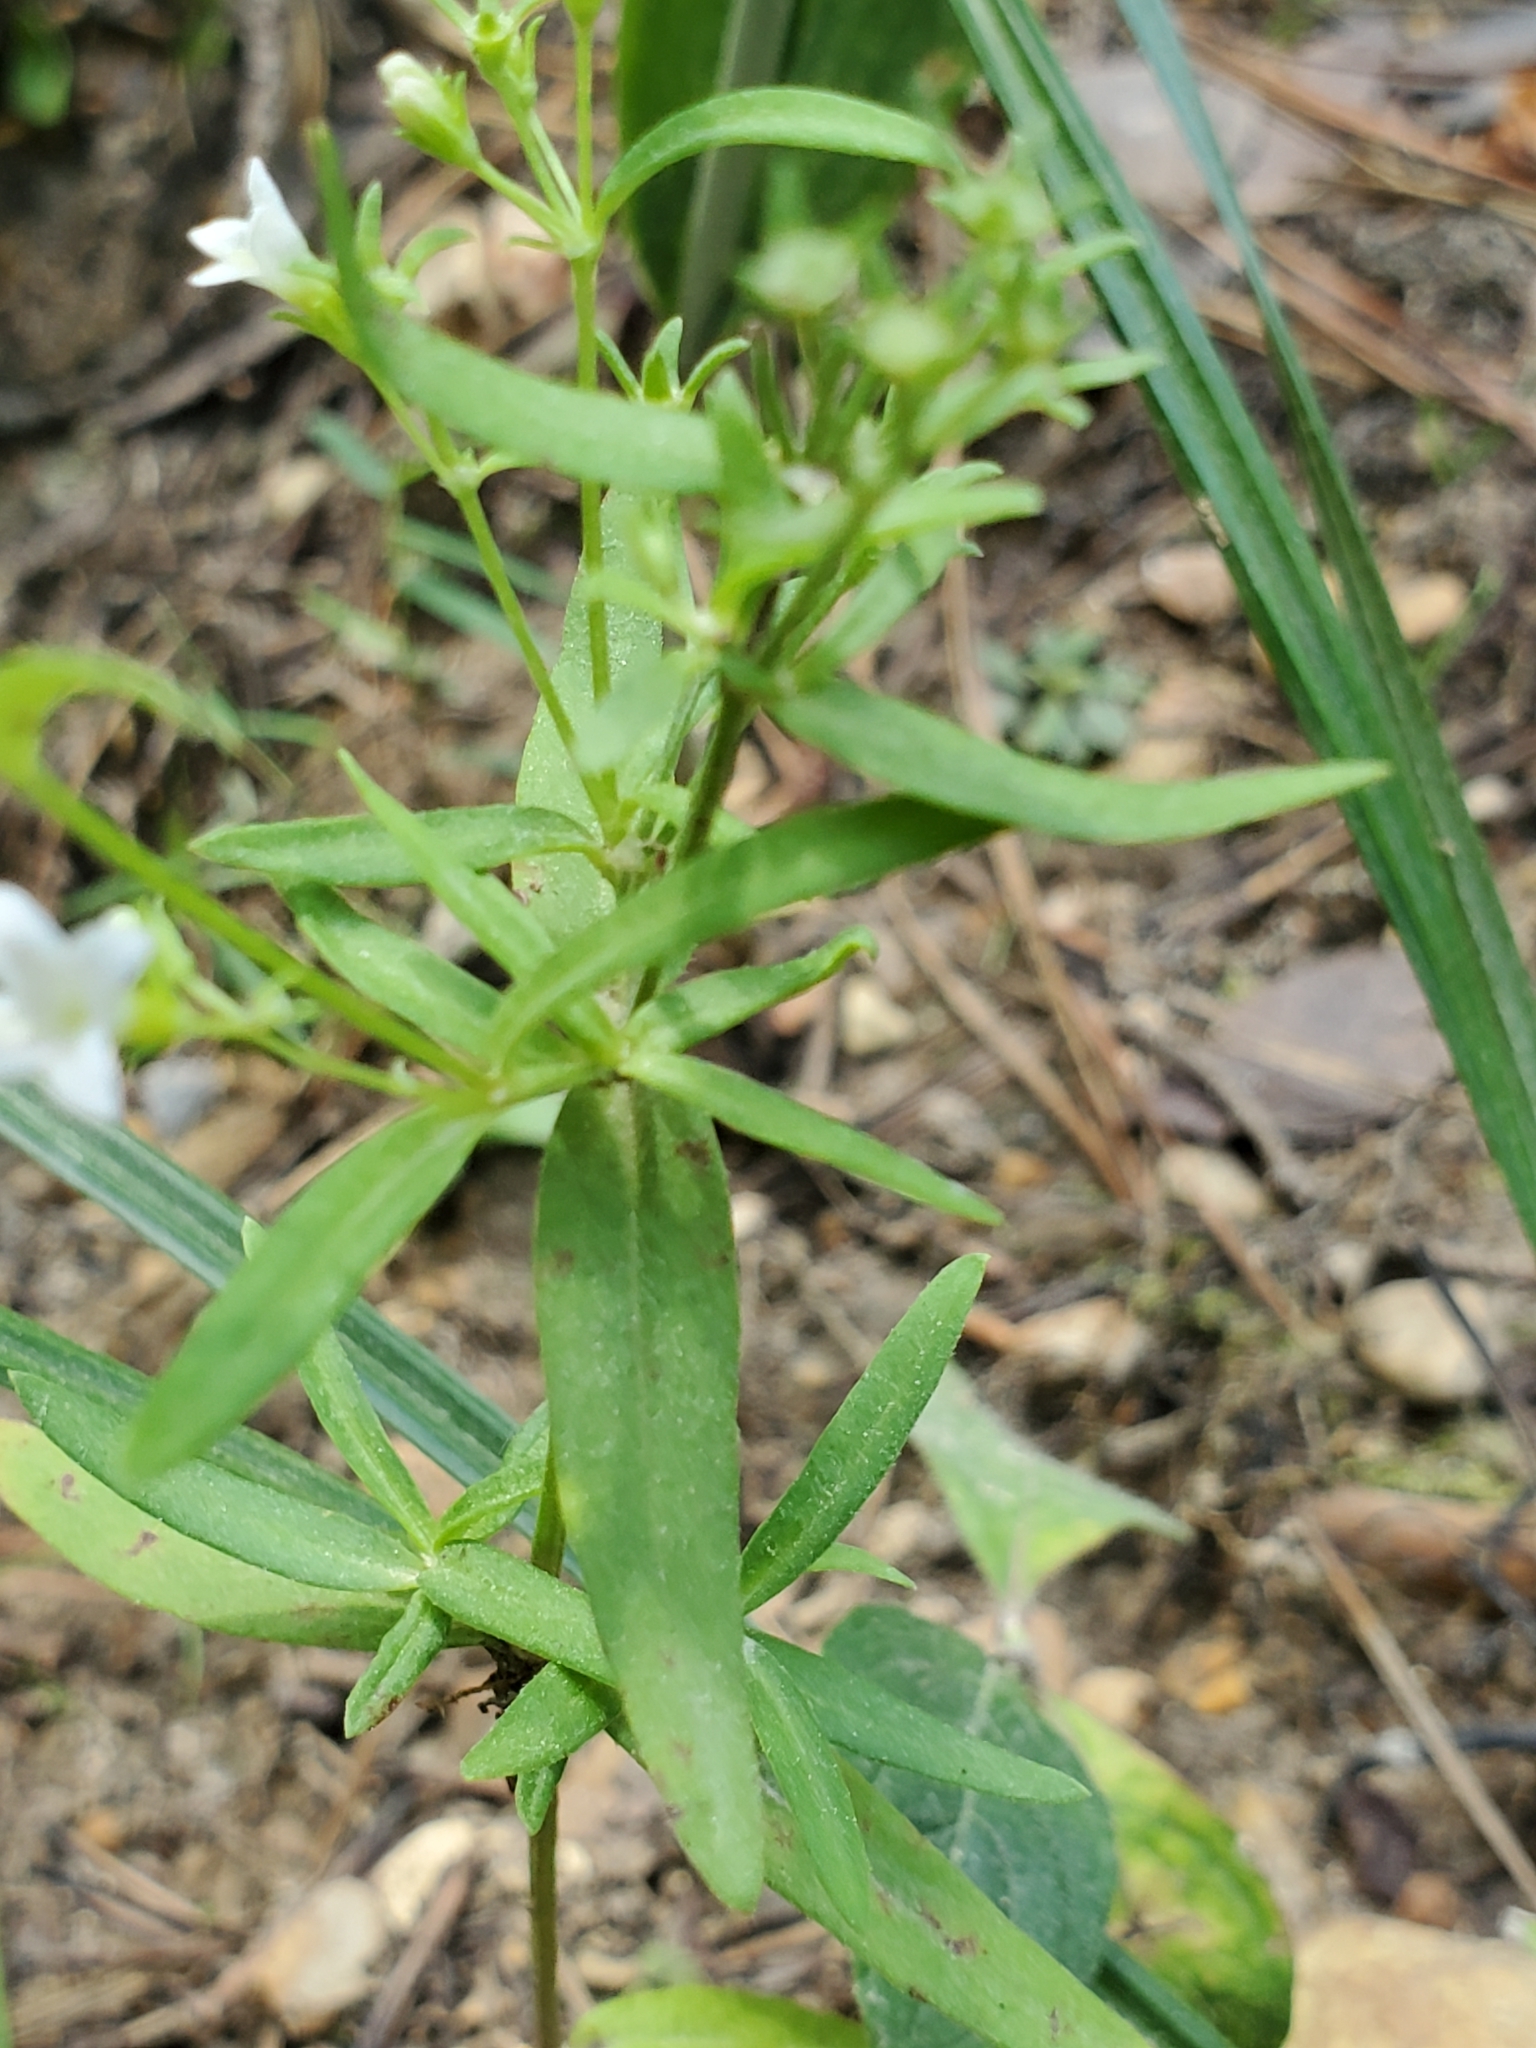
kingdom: Plantae
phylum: Tracheophyta
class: Magnoliopsida
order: Gentianales
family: Rubiaceae
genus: Houstonia
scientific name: Houstonia purpurea
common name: Summer bluet
